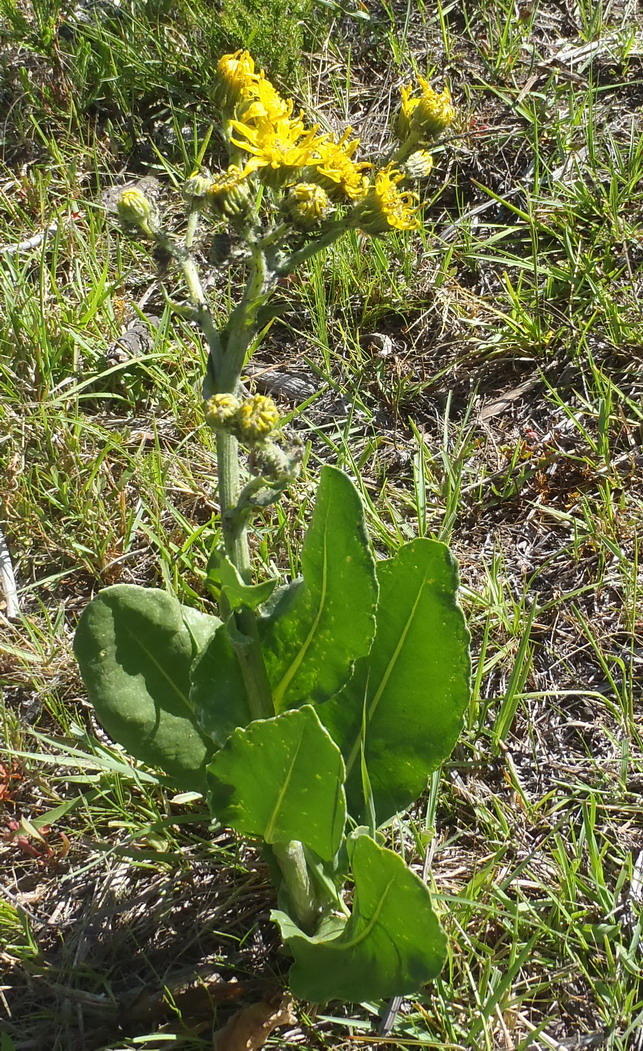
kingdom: Plantae
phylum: Tracheophyta
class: Magnoliopsida
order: Asterales
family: Asteraceae
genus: Senecio
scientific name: Senecio coronatus
